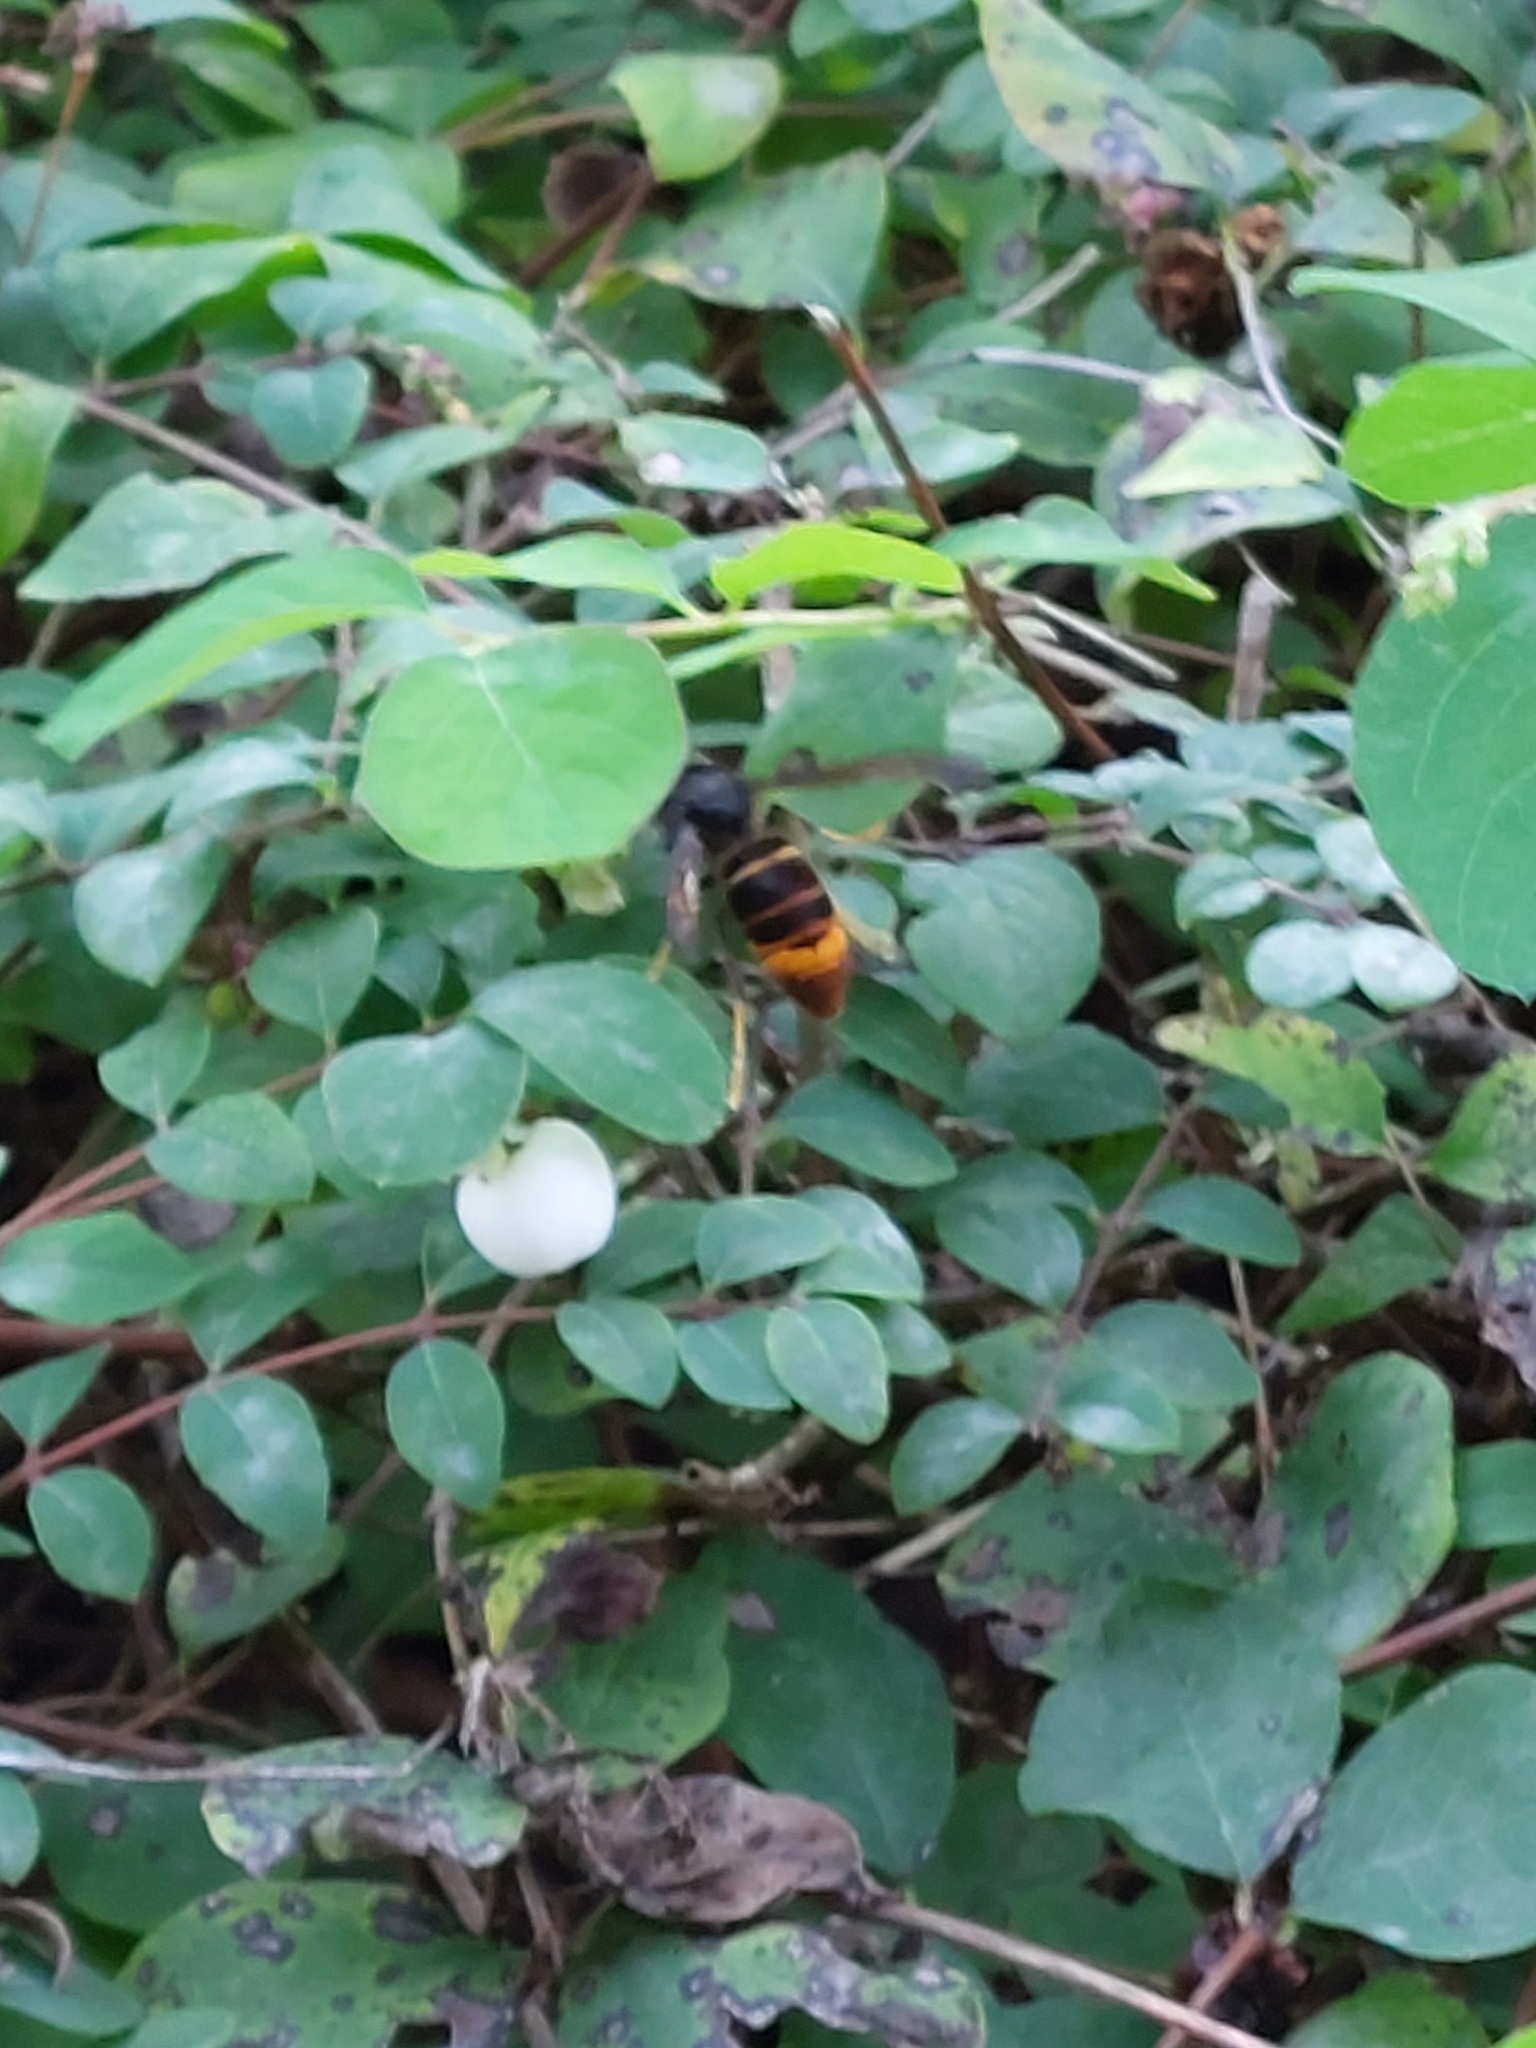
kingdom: Animalia
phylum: Arthropoda
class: Insecta
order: Hymenoptera
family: Vespidae
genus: Vespa
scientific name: Vespa velutina
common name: Asian hornet
